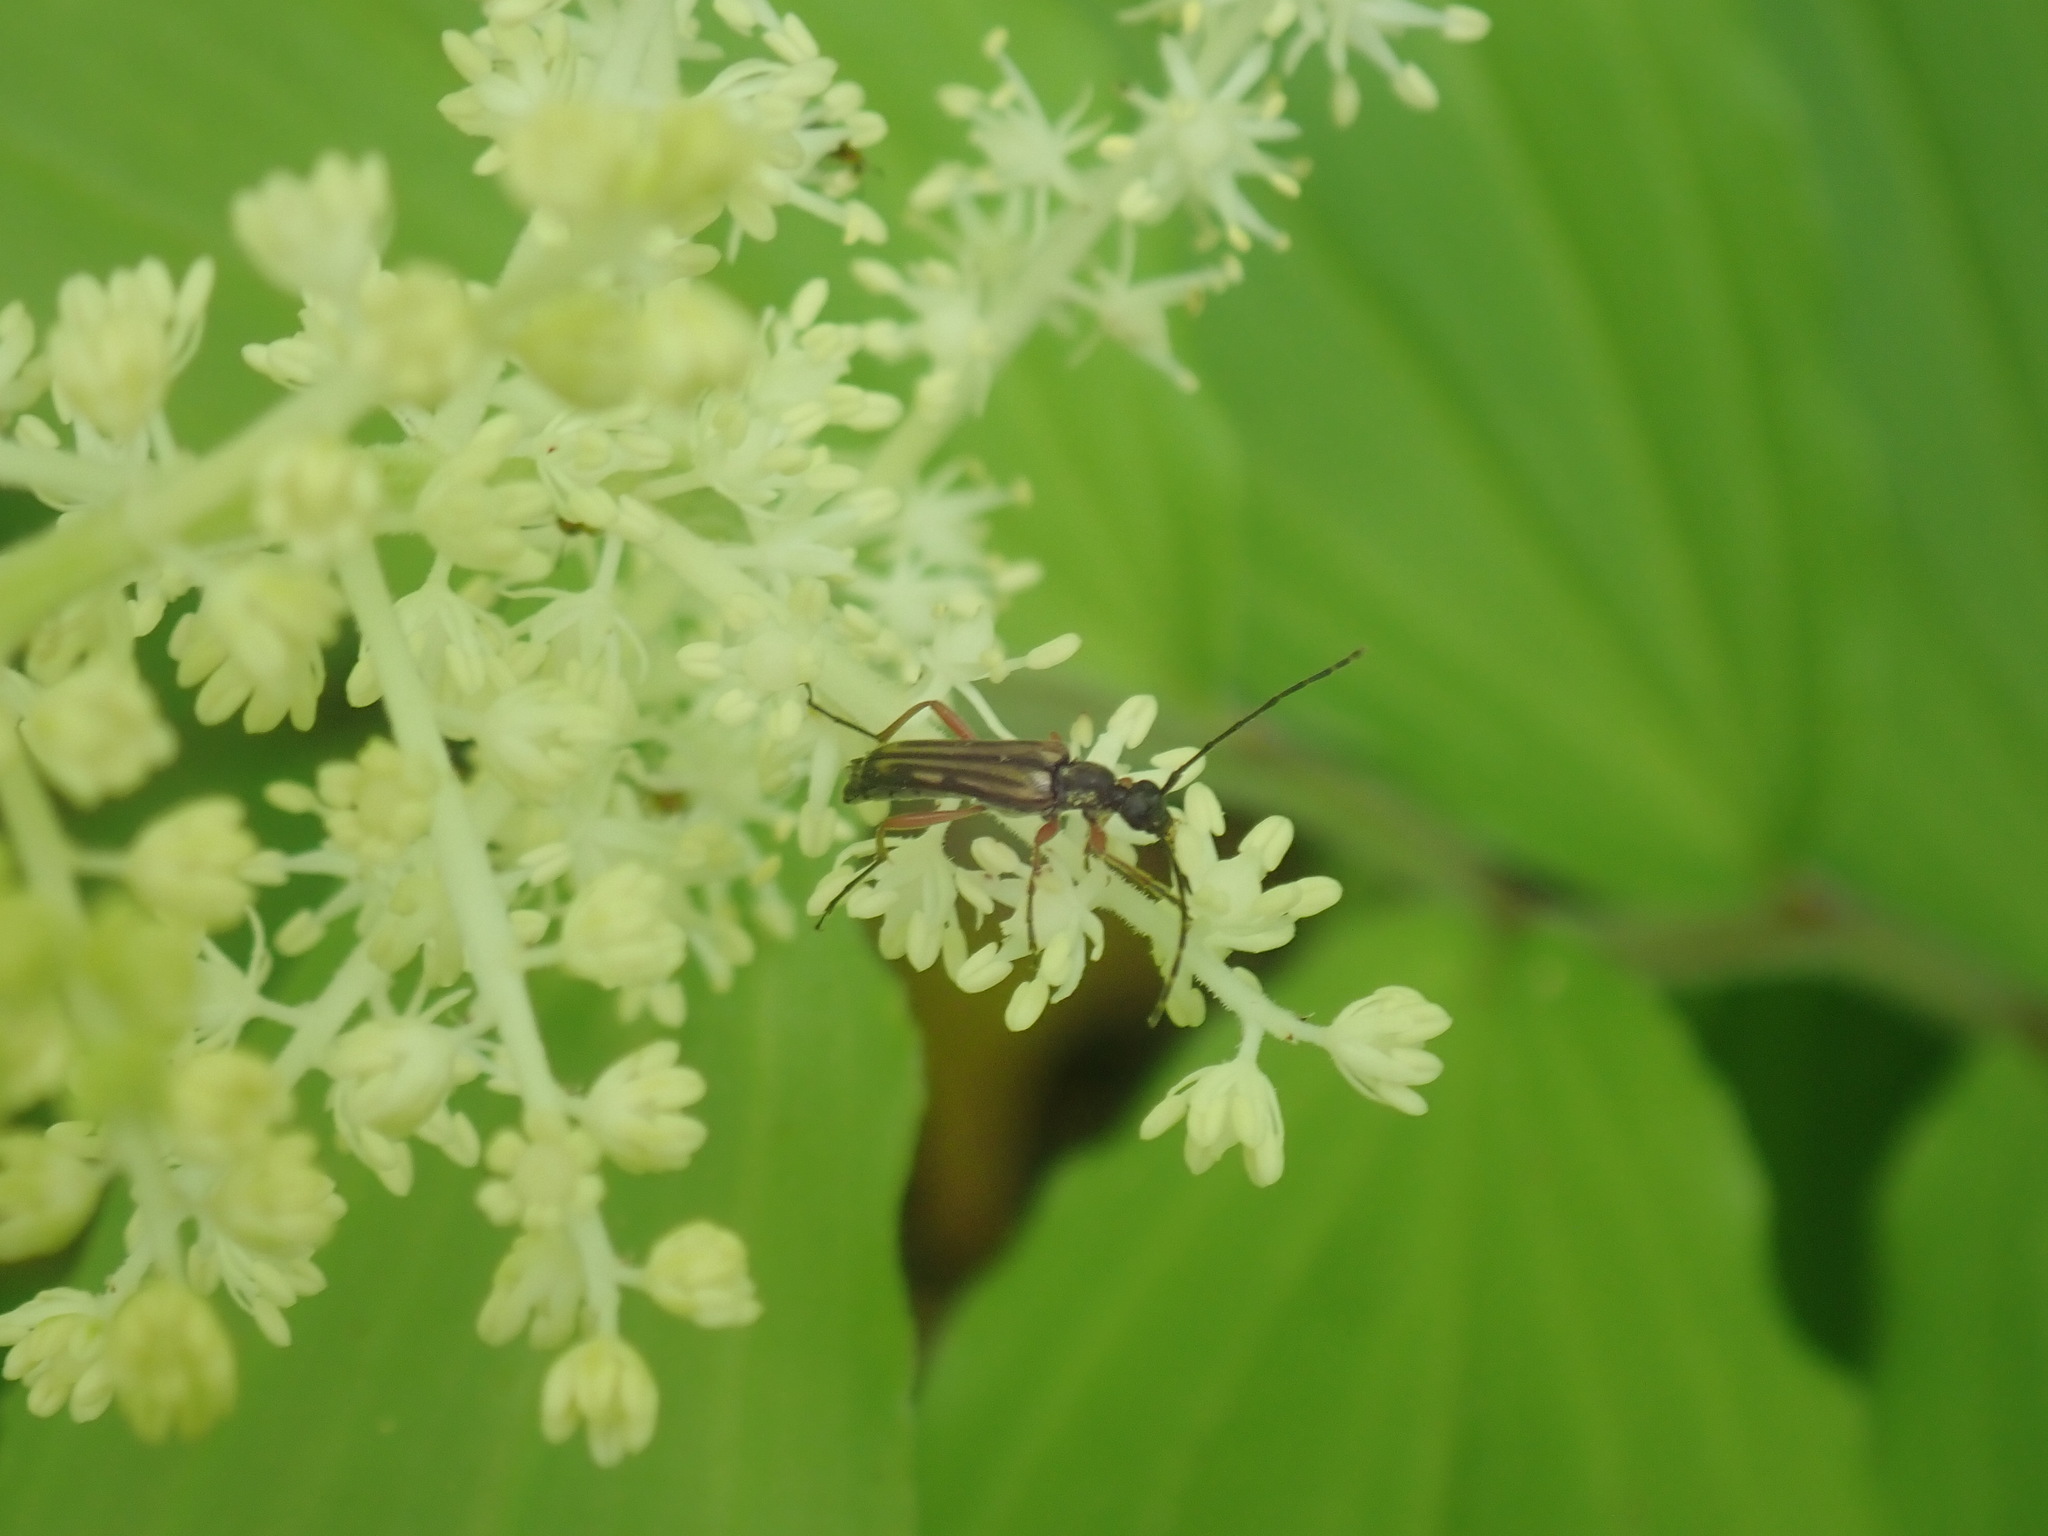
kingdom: Animalia
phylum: Arthropoda
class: Insecta
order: Coleoptera
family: Cerambycidae
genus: Analeptura
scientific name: Analeptura lineola
